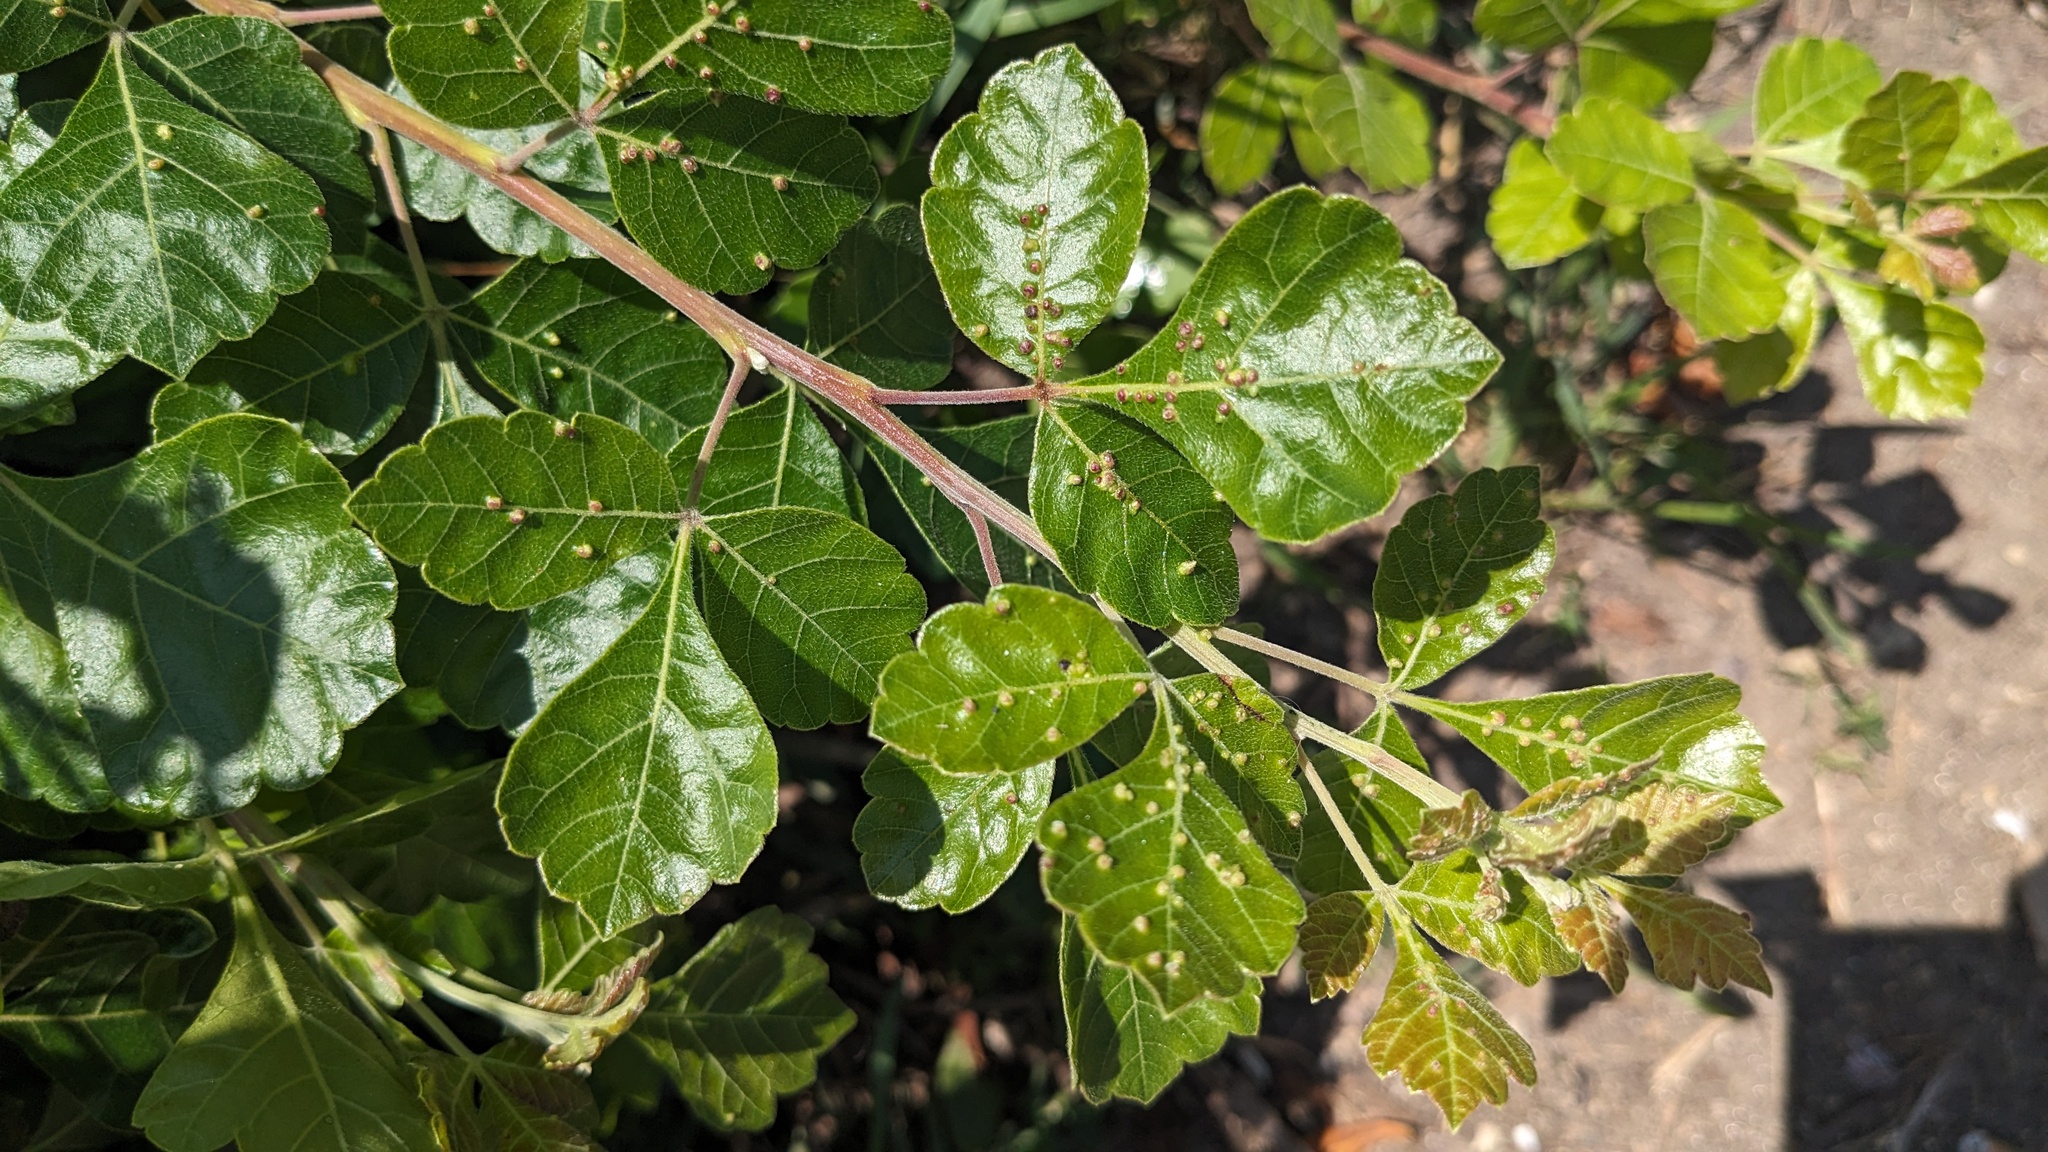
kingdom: Animalia
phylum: Arthropoda
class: Arachnida
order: Trombidiformes
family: Eriophyidae
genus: Aculops
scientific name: Aculops
